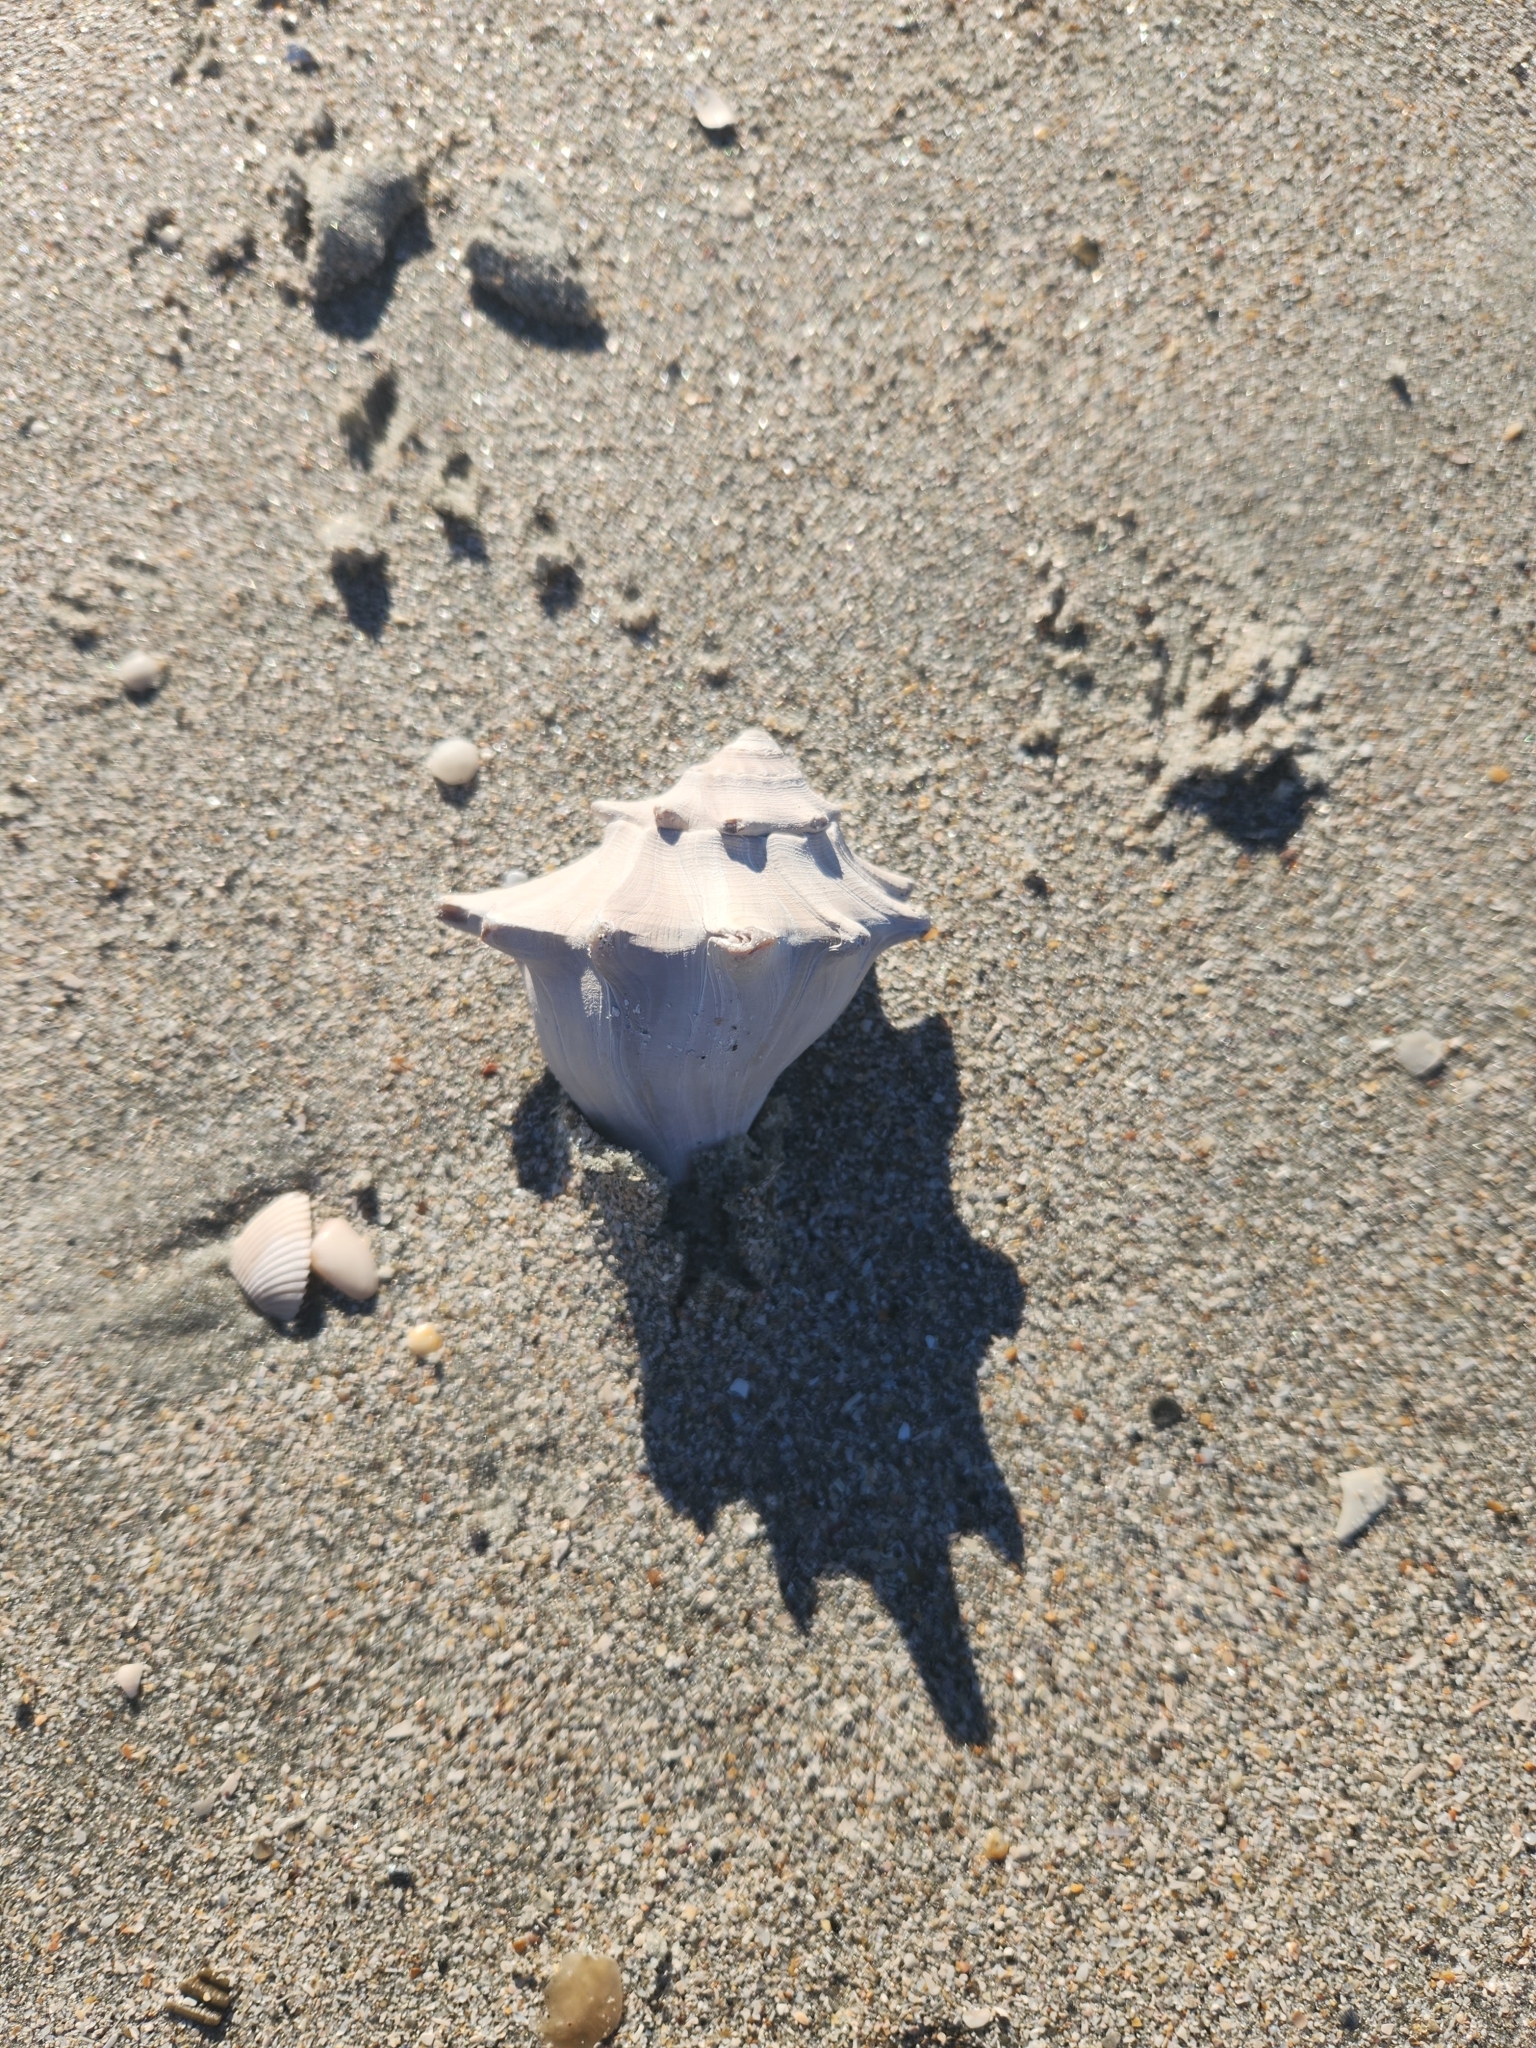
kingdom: Animalia
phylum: Mollusca
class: Gastropoda
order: Neogastropoda
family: Busyconidae
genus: Busycon
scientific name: Busycon carica
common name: Knobbed whelk
